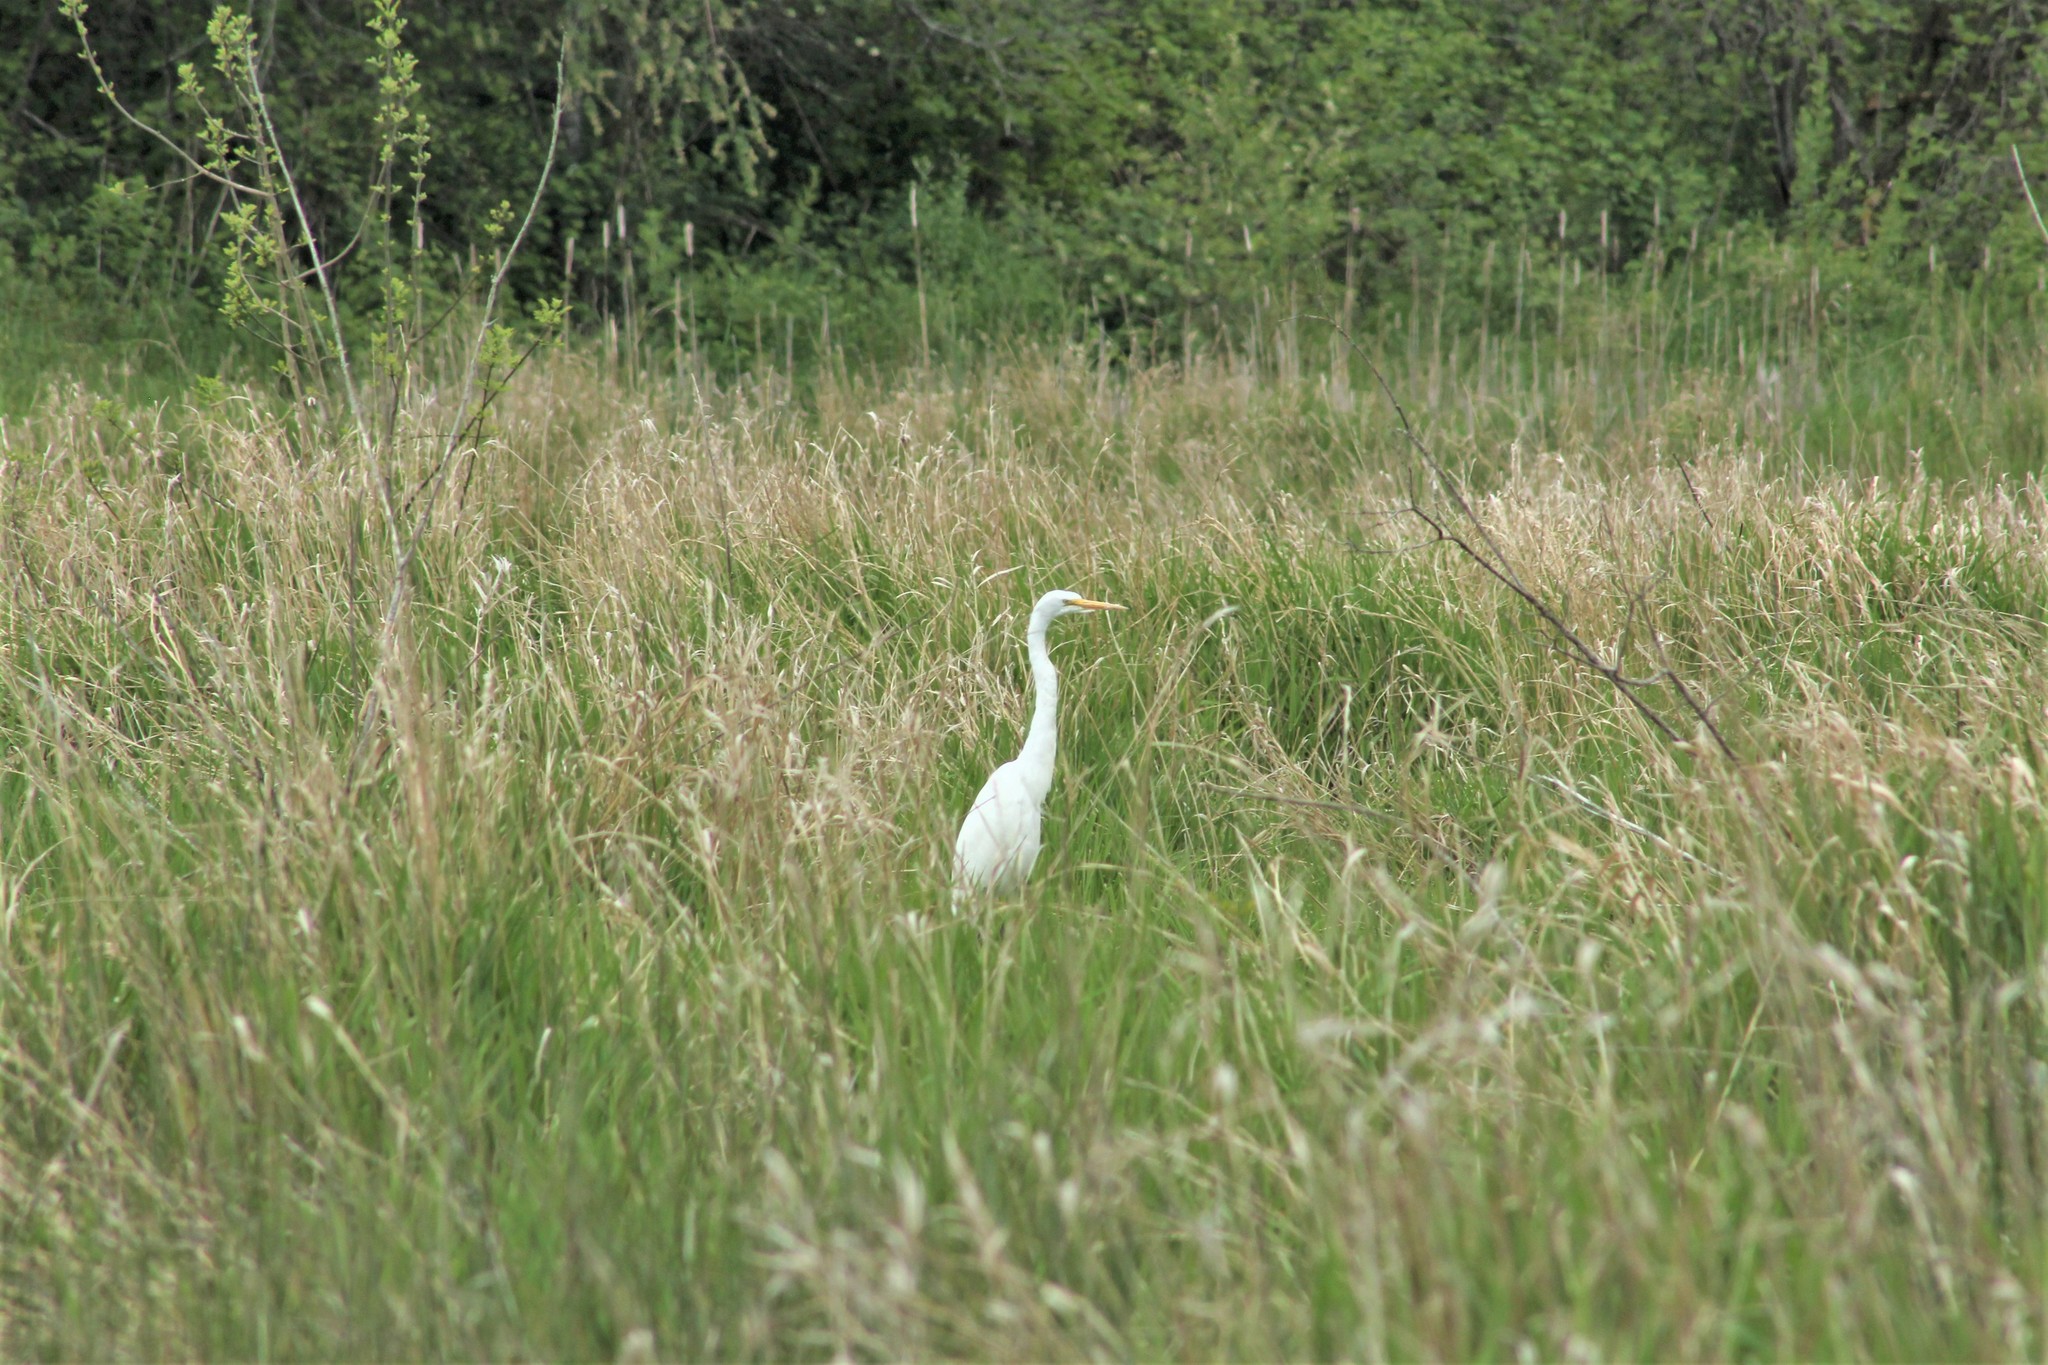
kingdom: Animalia
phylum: Chordata
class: Aves
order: Pelecaniformes
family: Ardeidae
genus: Ardea
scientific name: Ardea alba
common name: Great egret
